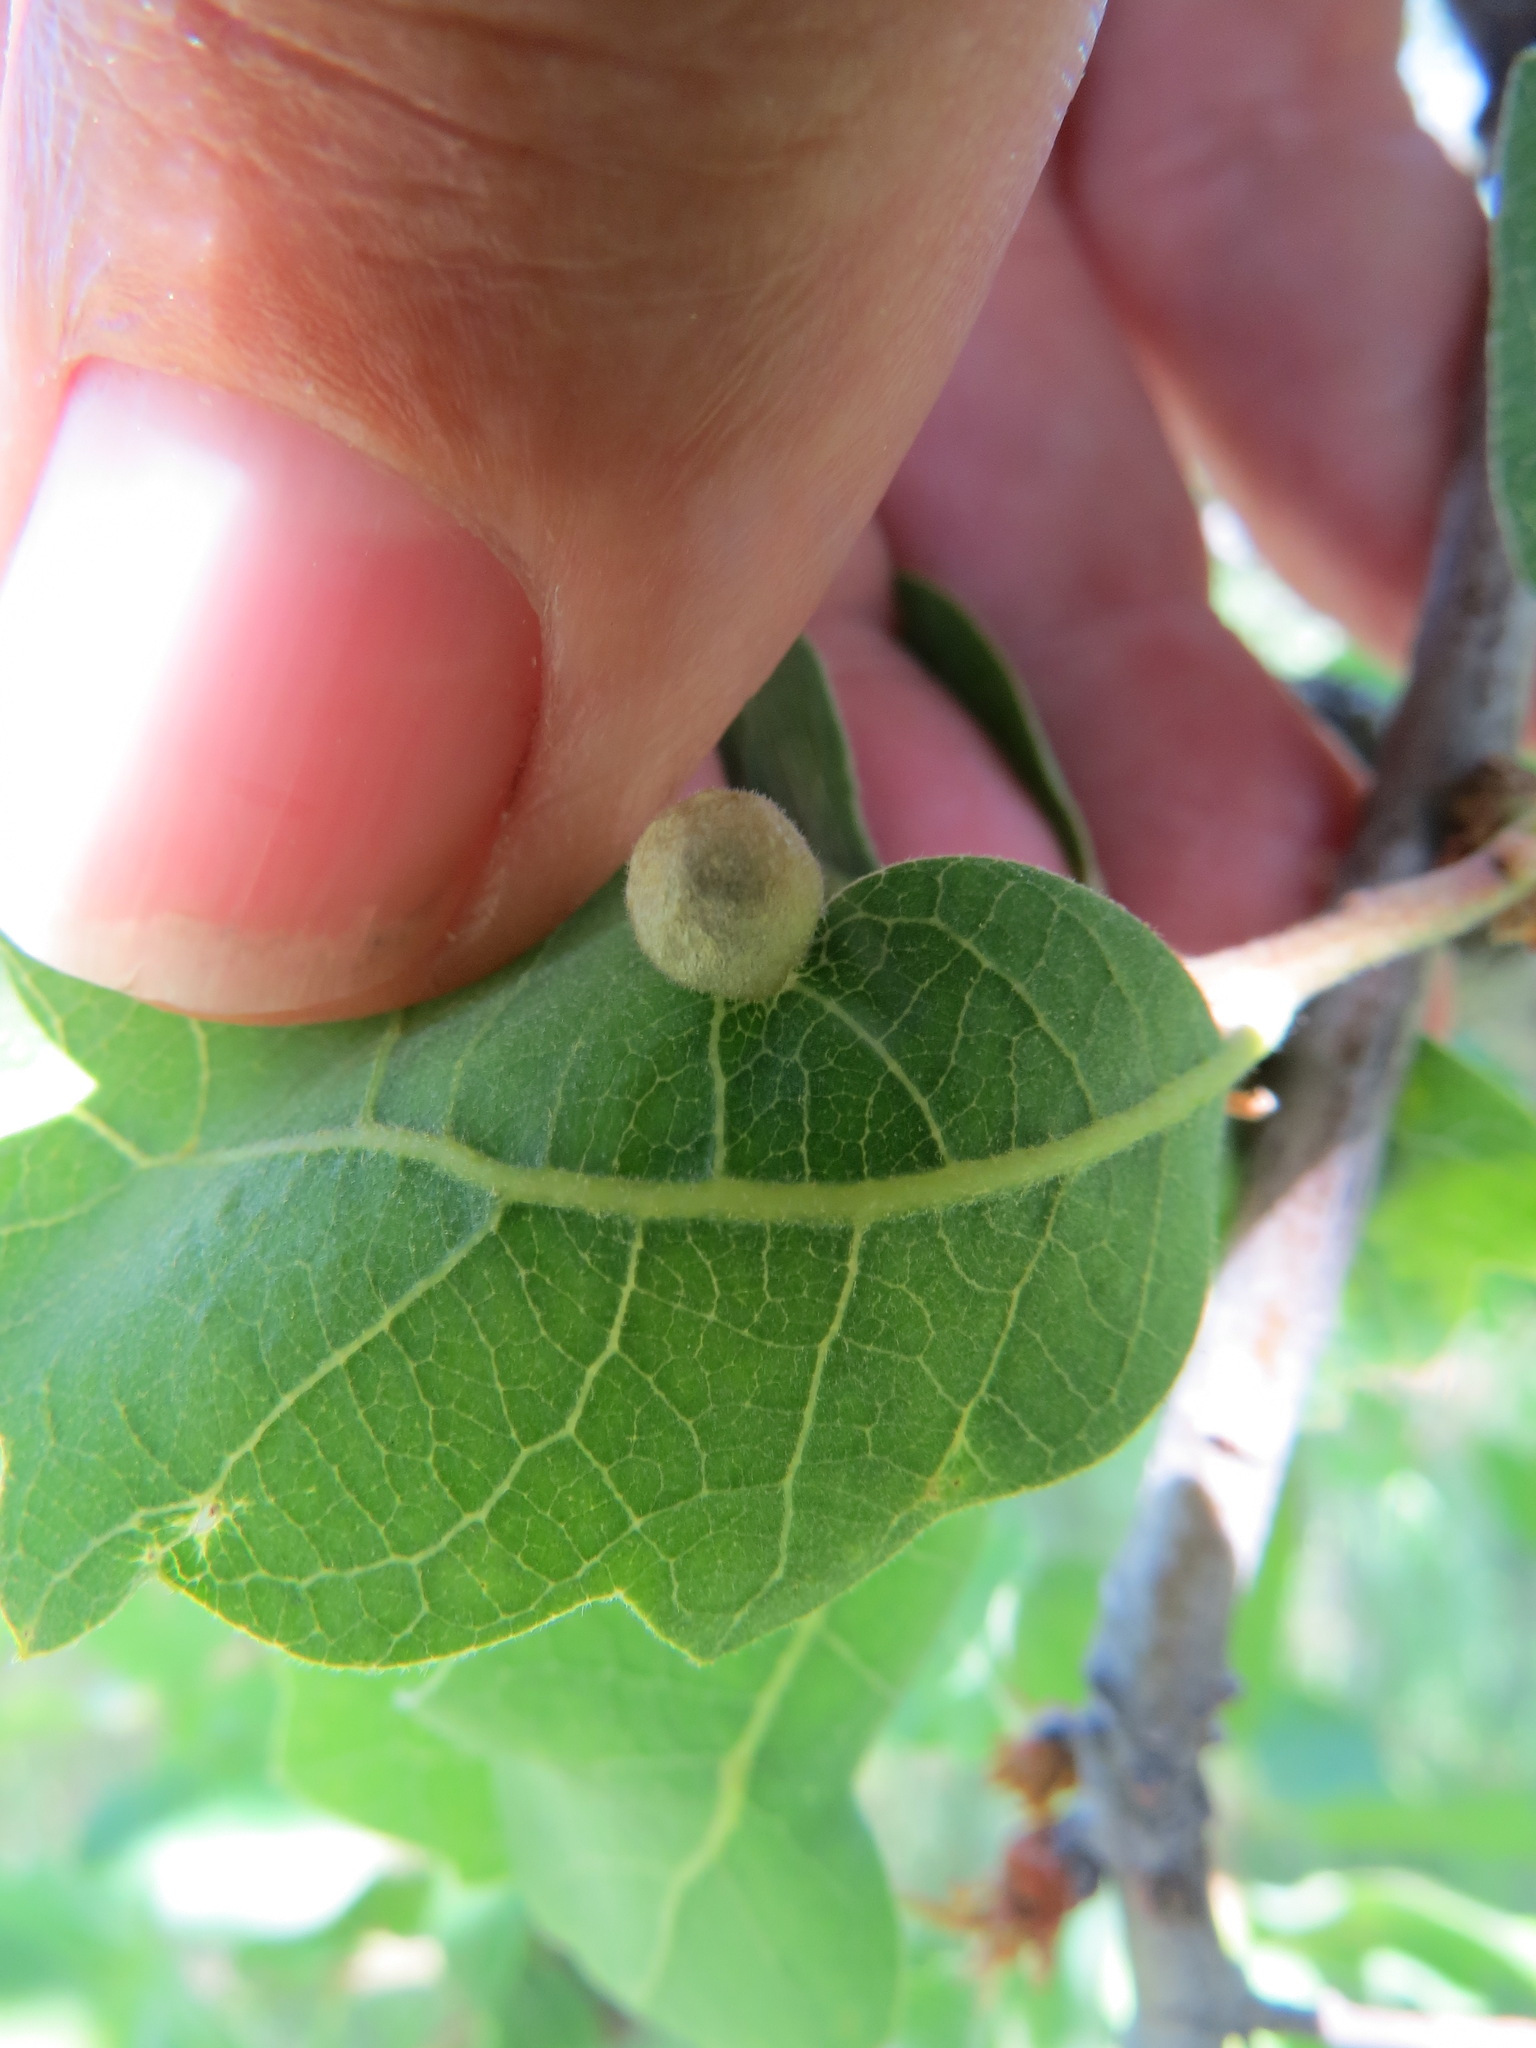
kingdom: Animalia
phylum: Arthropoda
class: Insecta
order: Hymenoptera
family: Cynipidae
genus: Andricus
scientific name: Andricus
